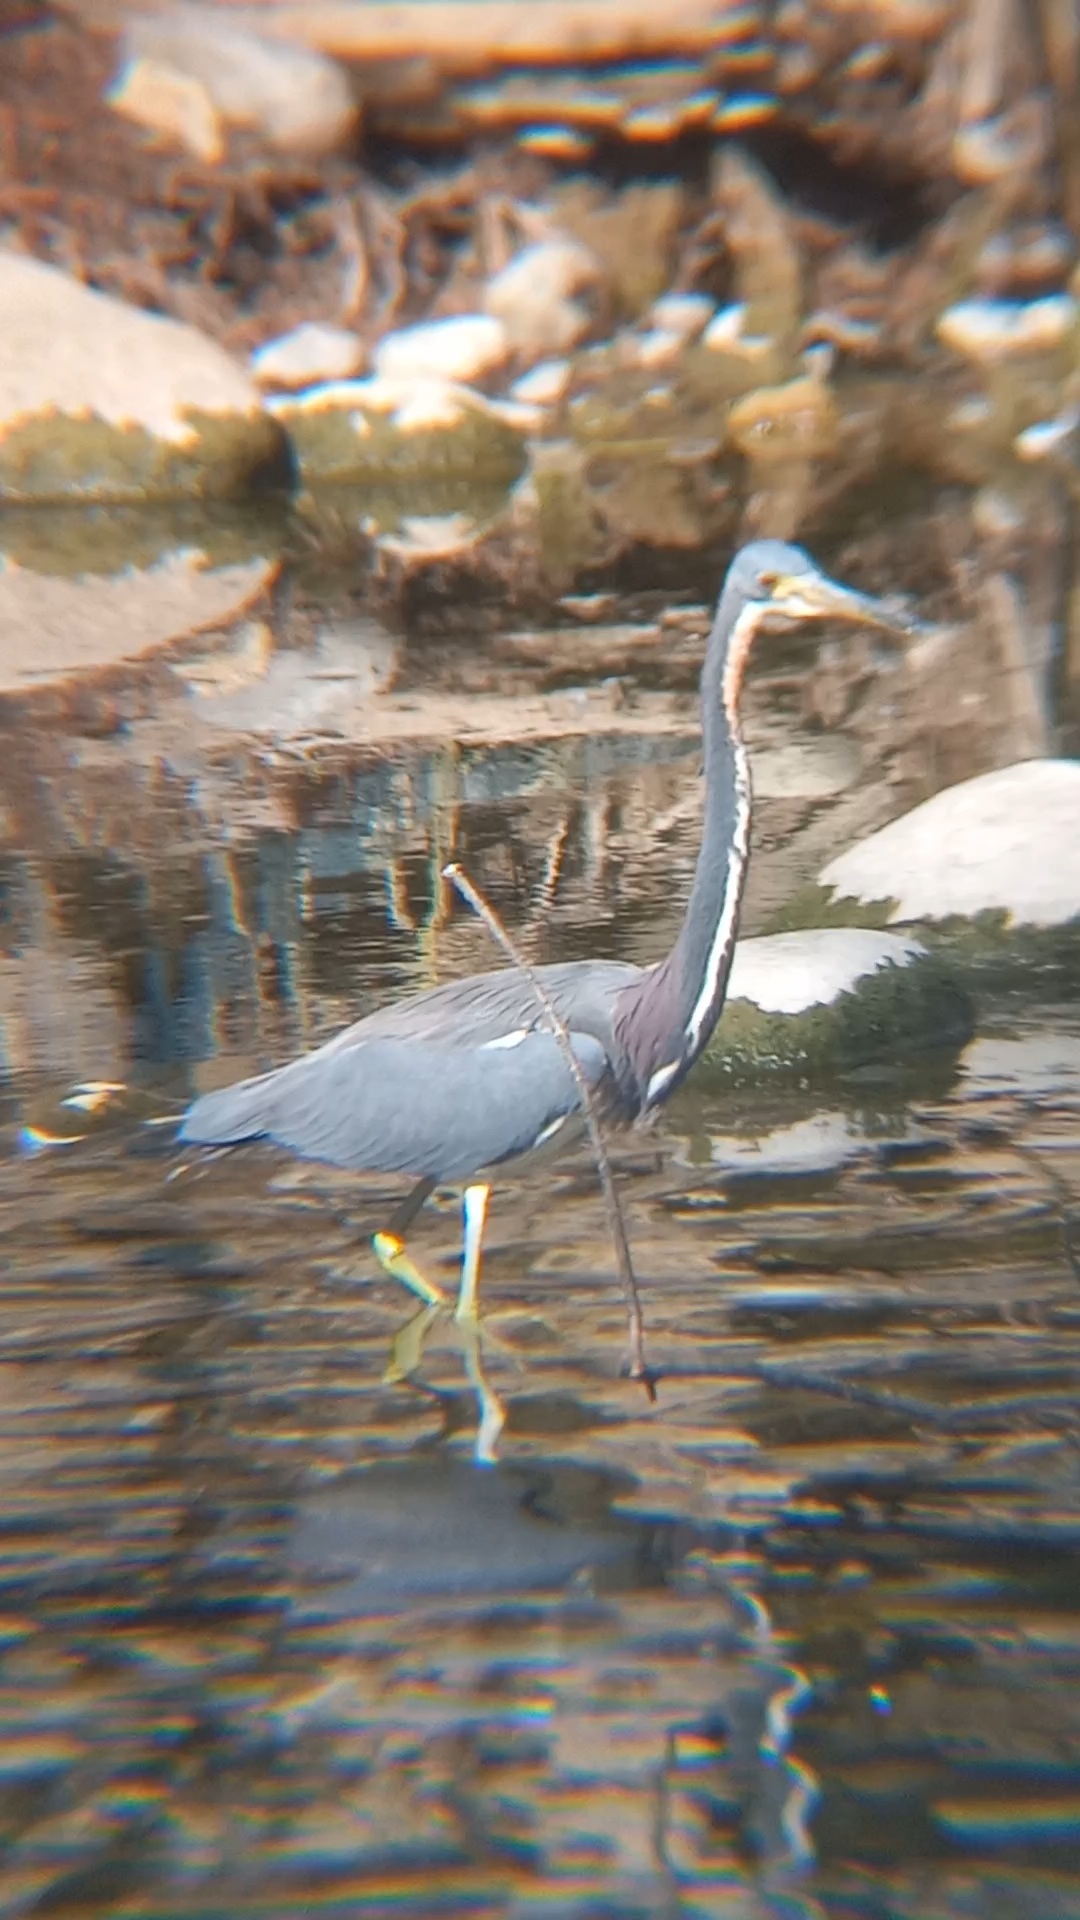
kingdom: Animalia
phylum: Chordata
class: Aves
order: Pelecaniformes
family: Ardeidae
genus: Egretta
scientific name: Egretta tricolor
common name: Tricolored heron
